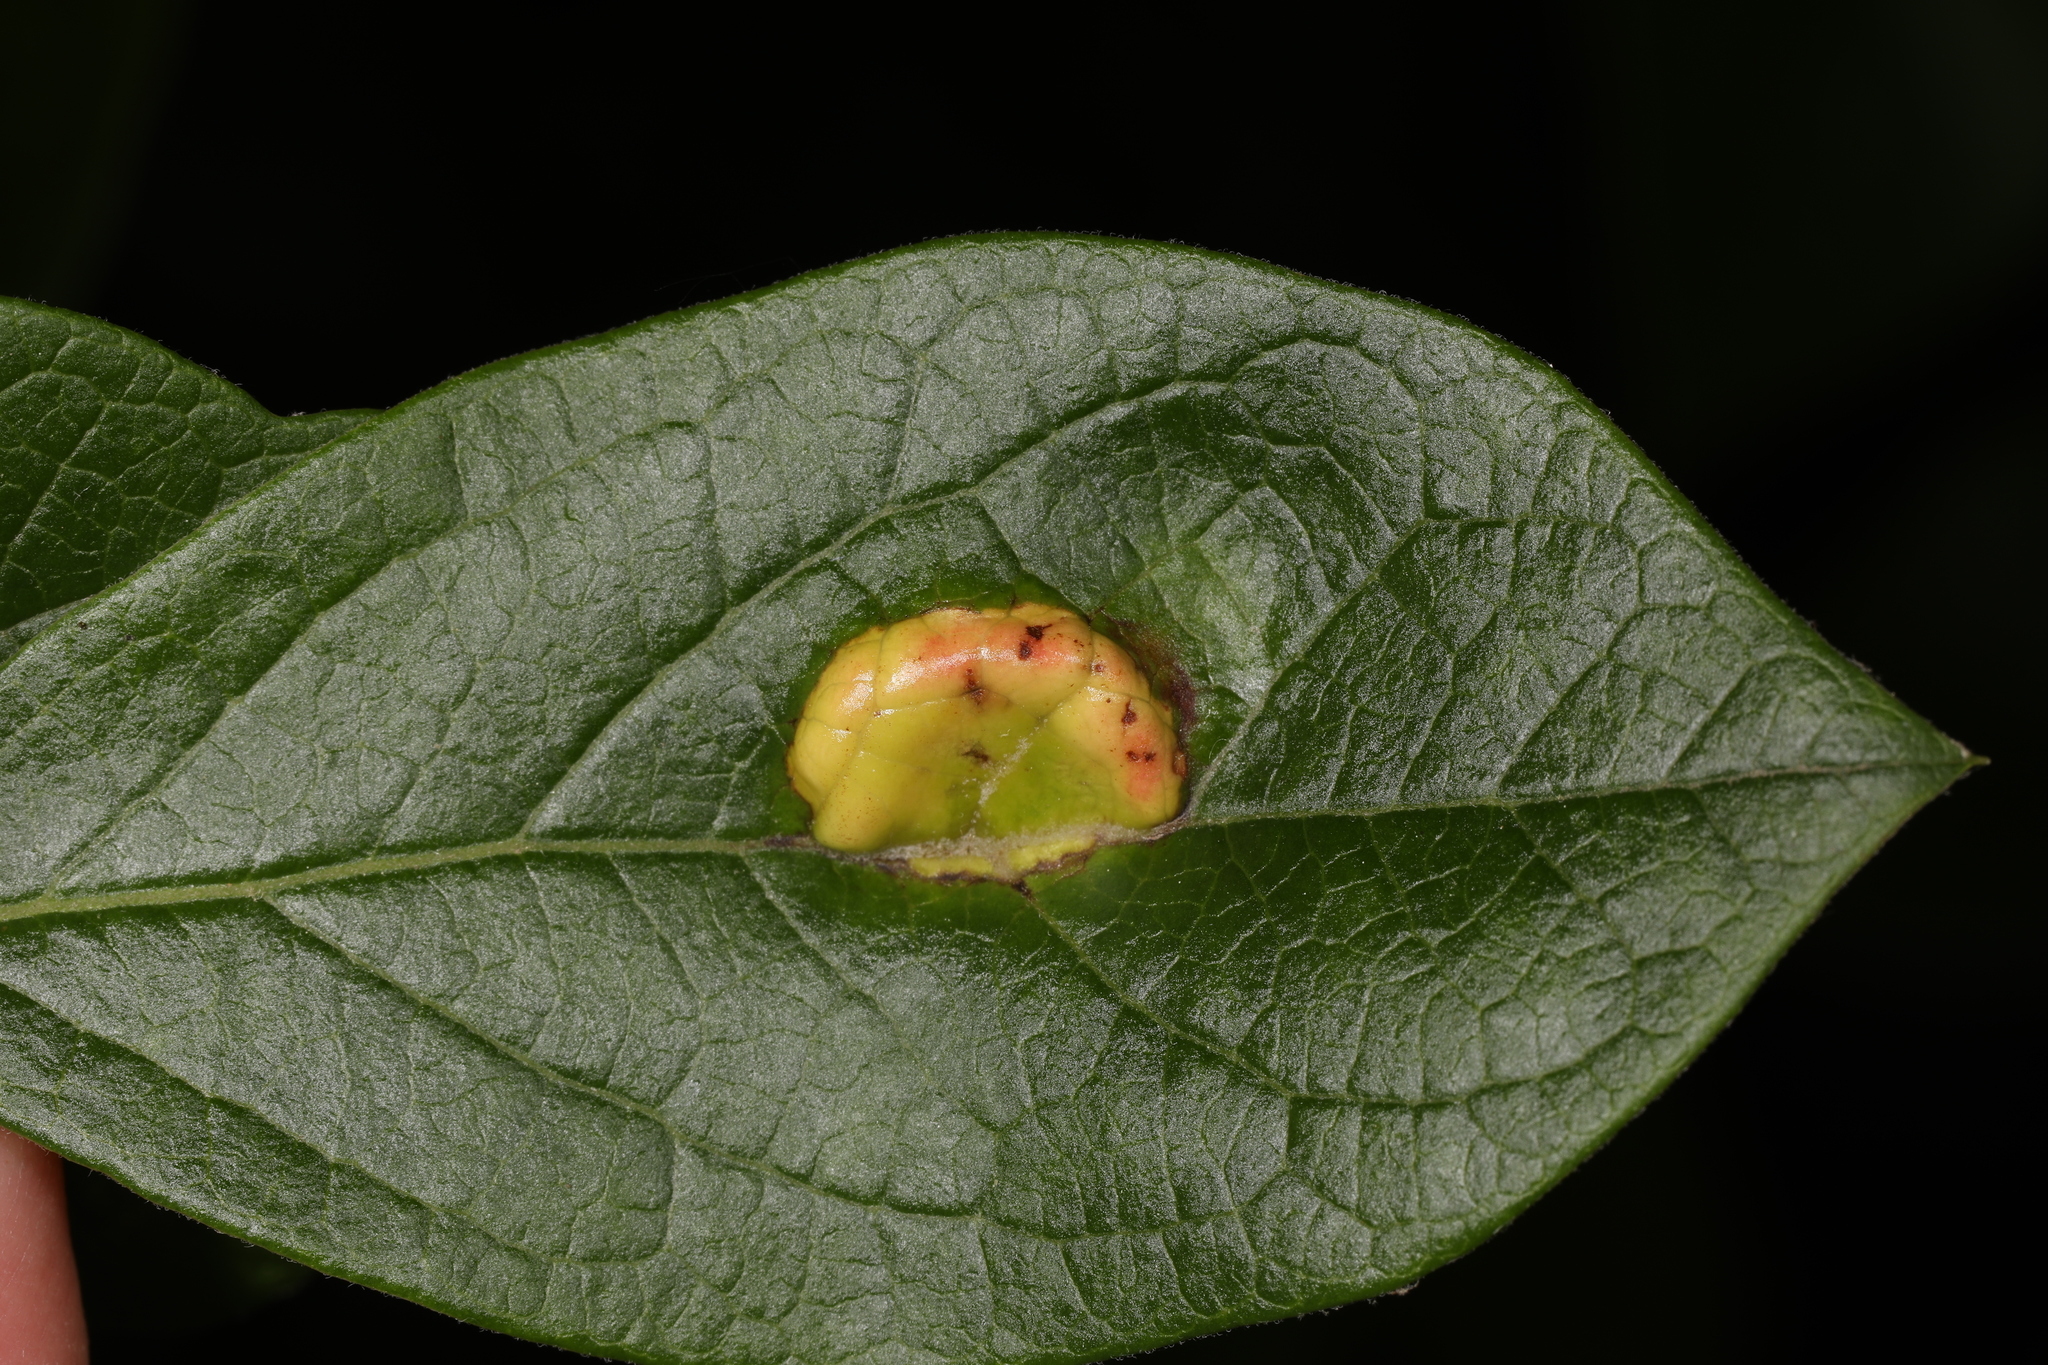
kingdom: Fungi
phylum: Basidiomycota
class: Exobasidiomycetes
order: Exobasidiales
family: Exobasidiaceae
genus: Exobasidium
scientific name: Exobasidium vaccinii
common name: Cowberry redleaf
